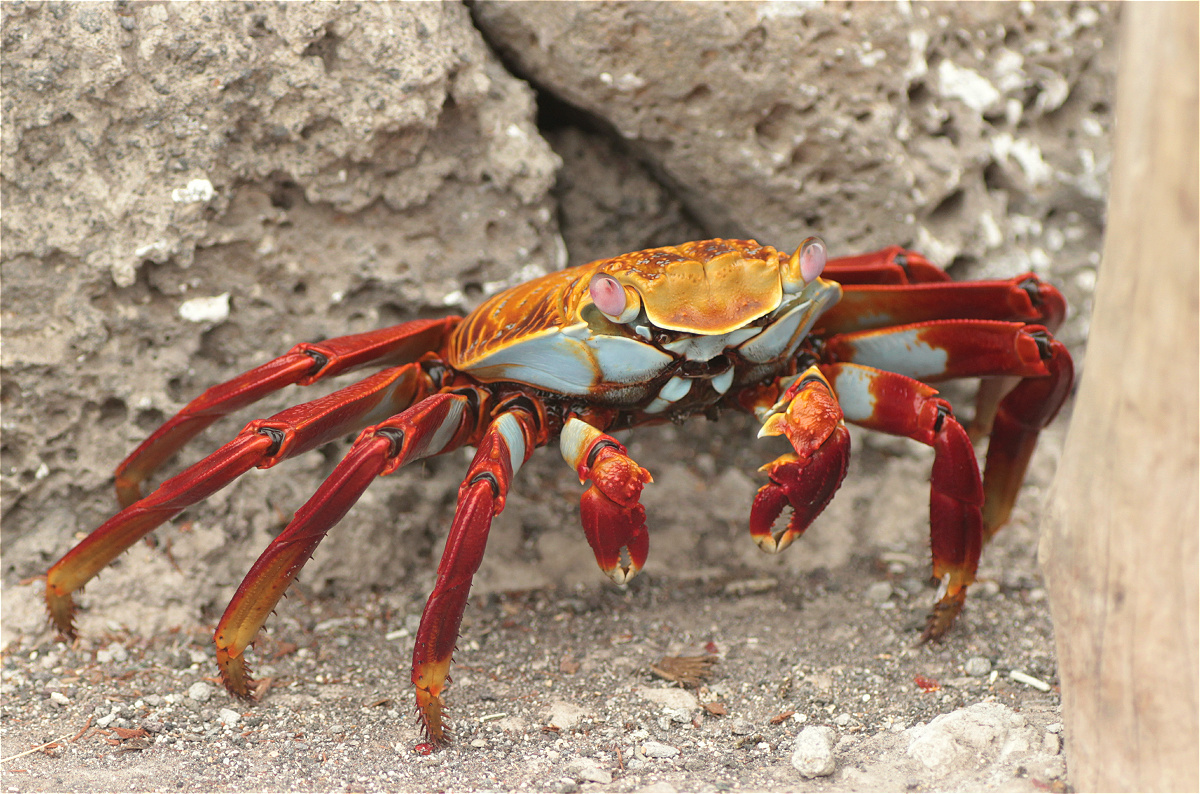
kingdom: Animalia
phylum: Arthropoda
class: Malacostraca
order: Decapoda
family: Grapsidae
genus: Grapsus
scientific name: Grapsus grapsus
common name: Sally lightfoot
